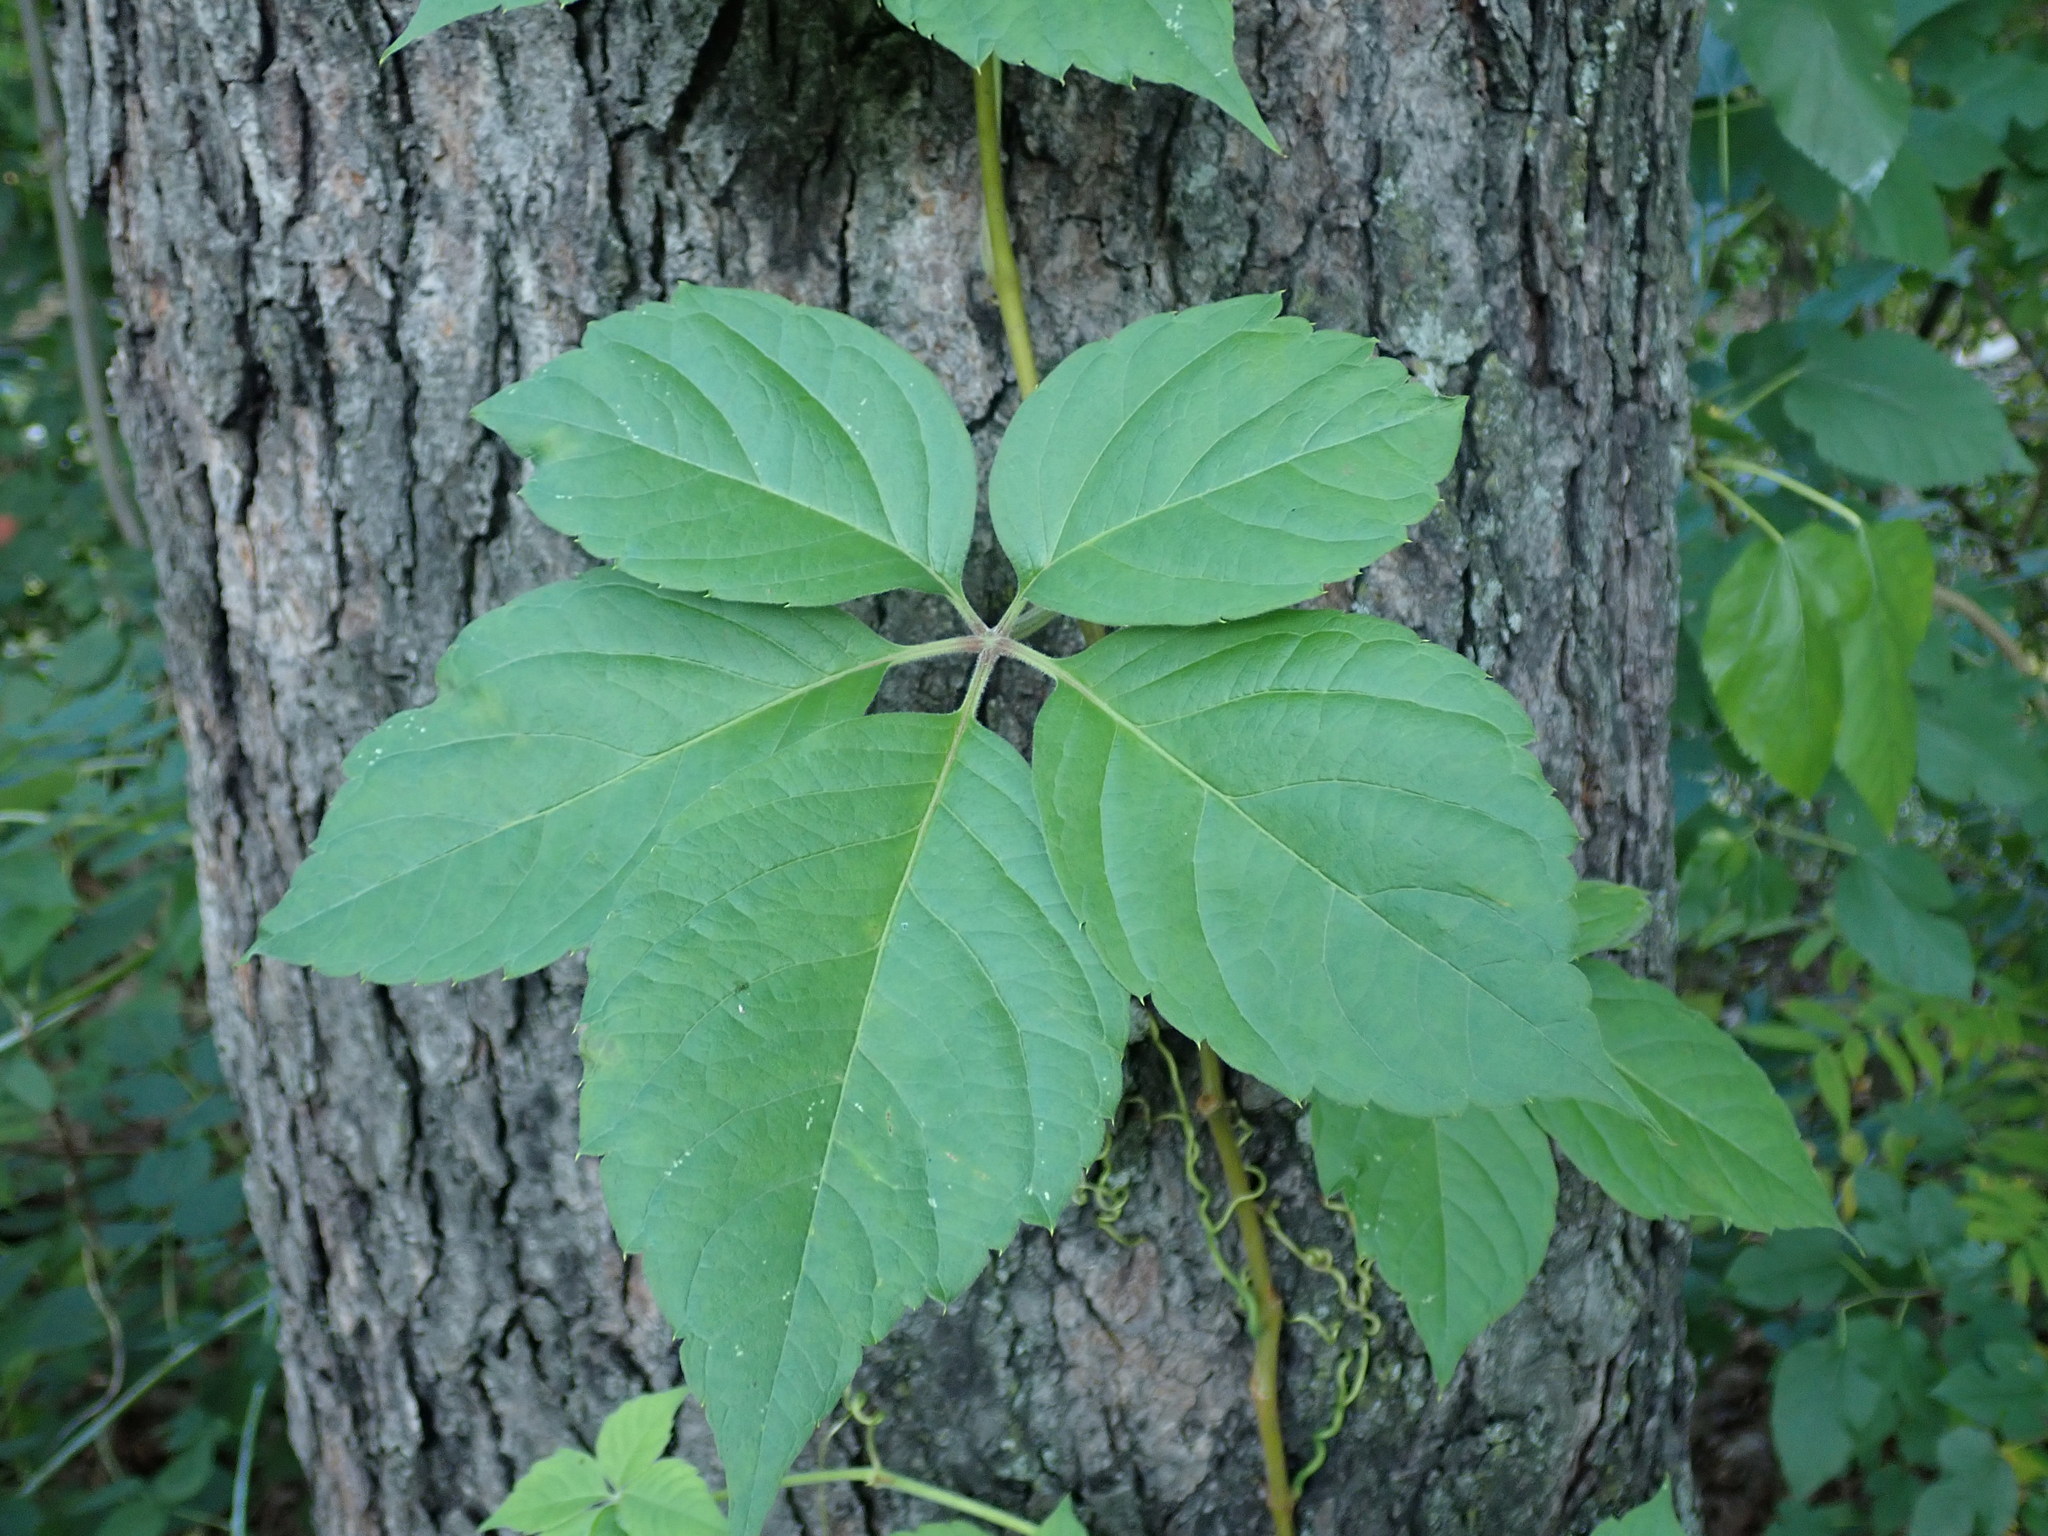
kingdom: Plantae
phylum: Tracheophyta
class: Magnoliopsida
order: Vitales
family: Vitaceae
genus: Parthenocissus
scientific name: Parthenocissus quinquefolia
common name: Virginia-creeper
